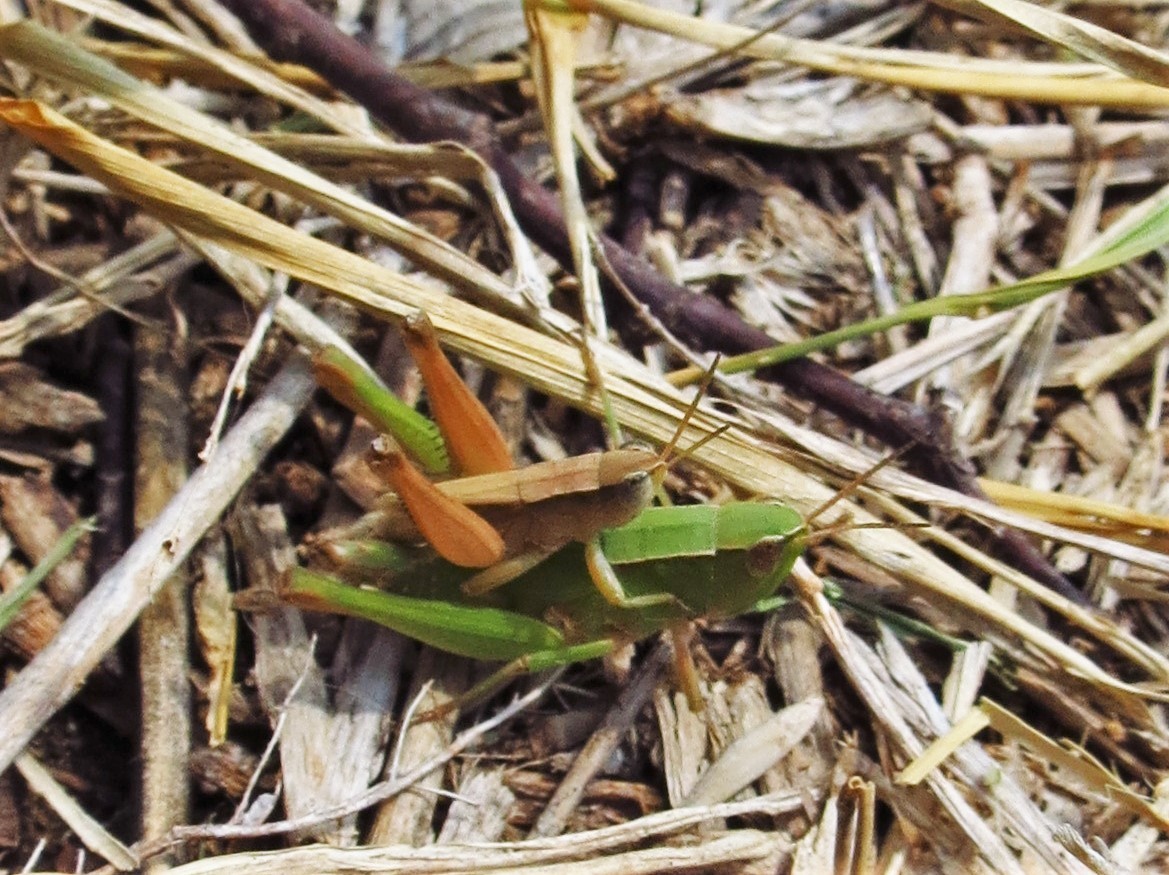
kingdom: Animalia
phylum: Arthropoda
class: Insecta
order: Orthoptera
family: Acrididae
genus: Dichromorpha
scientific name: Dichromorpha viridis
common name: Short-winged green grasshopper
